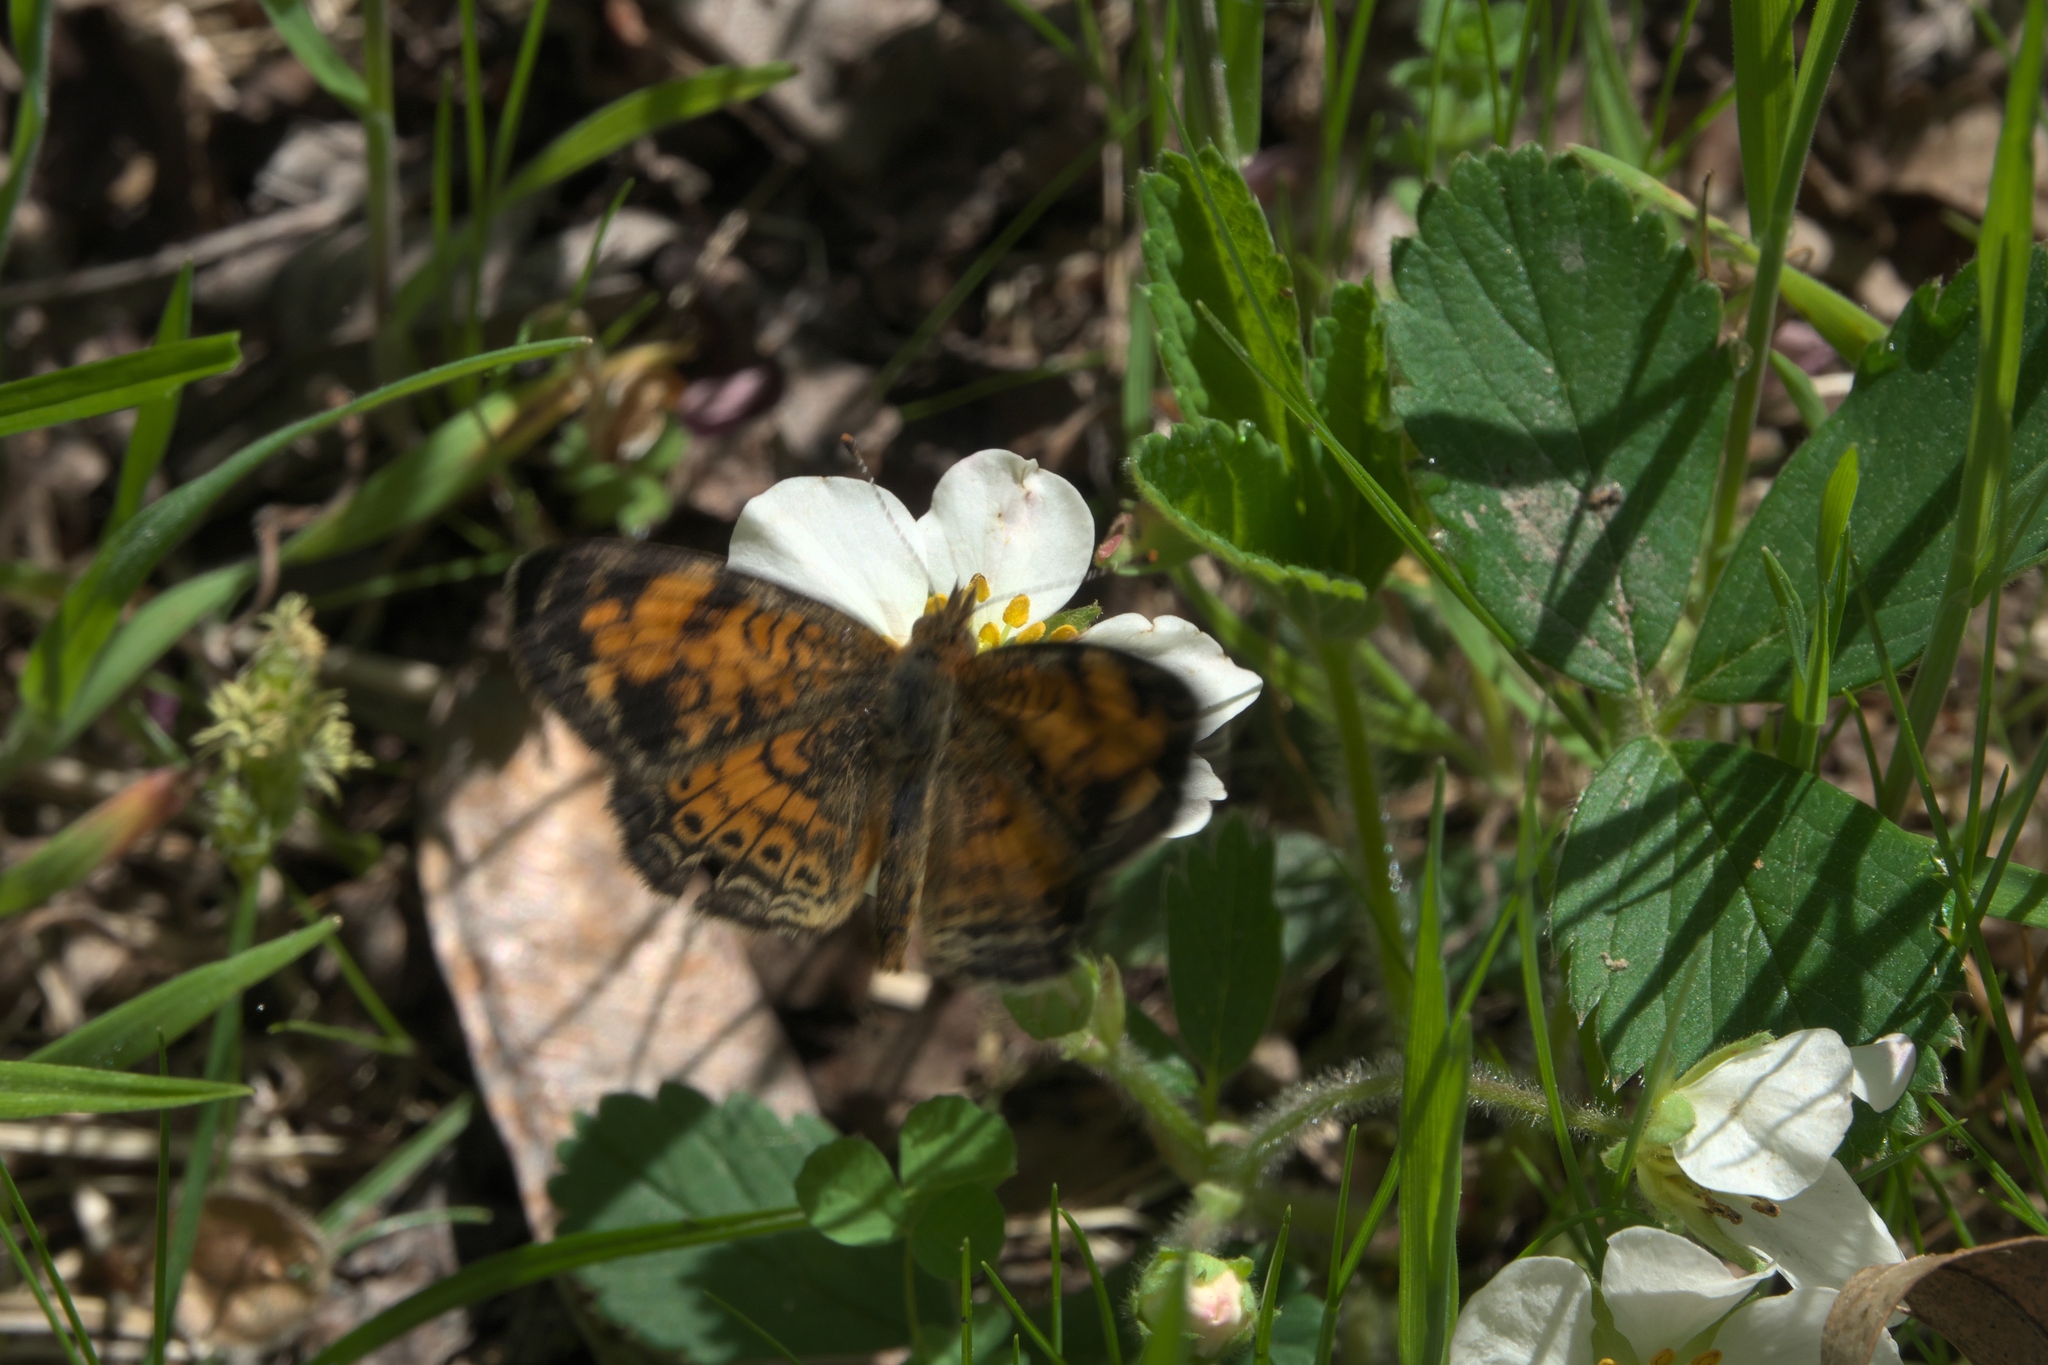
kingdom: Animalia
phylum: Arthropoda
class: Insecta
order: Lepidoptera
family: Nymphalidae
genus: Phyciodes
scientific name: Phyciodes tharos
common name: Pearl crescent
